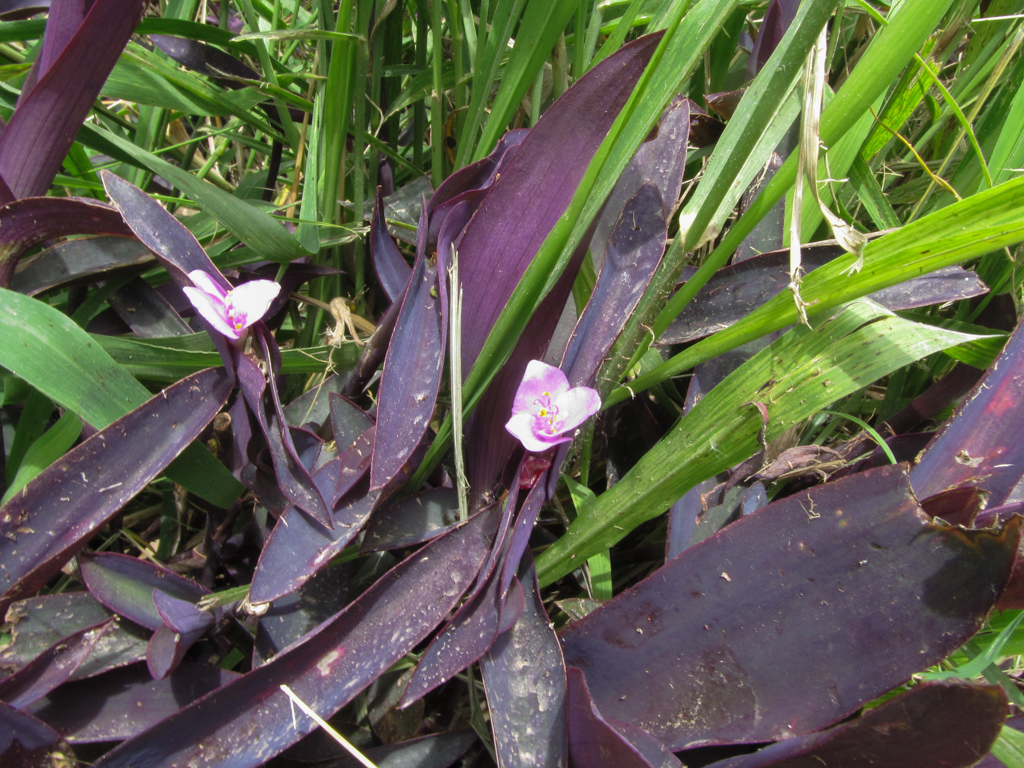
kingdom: Plantae
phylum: Tracheophyta
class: Liliopsida
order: Commelinales
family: Commelinaceae
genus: Tradescantia
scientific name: Tradescantia pallida
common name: Purpleheart
